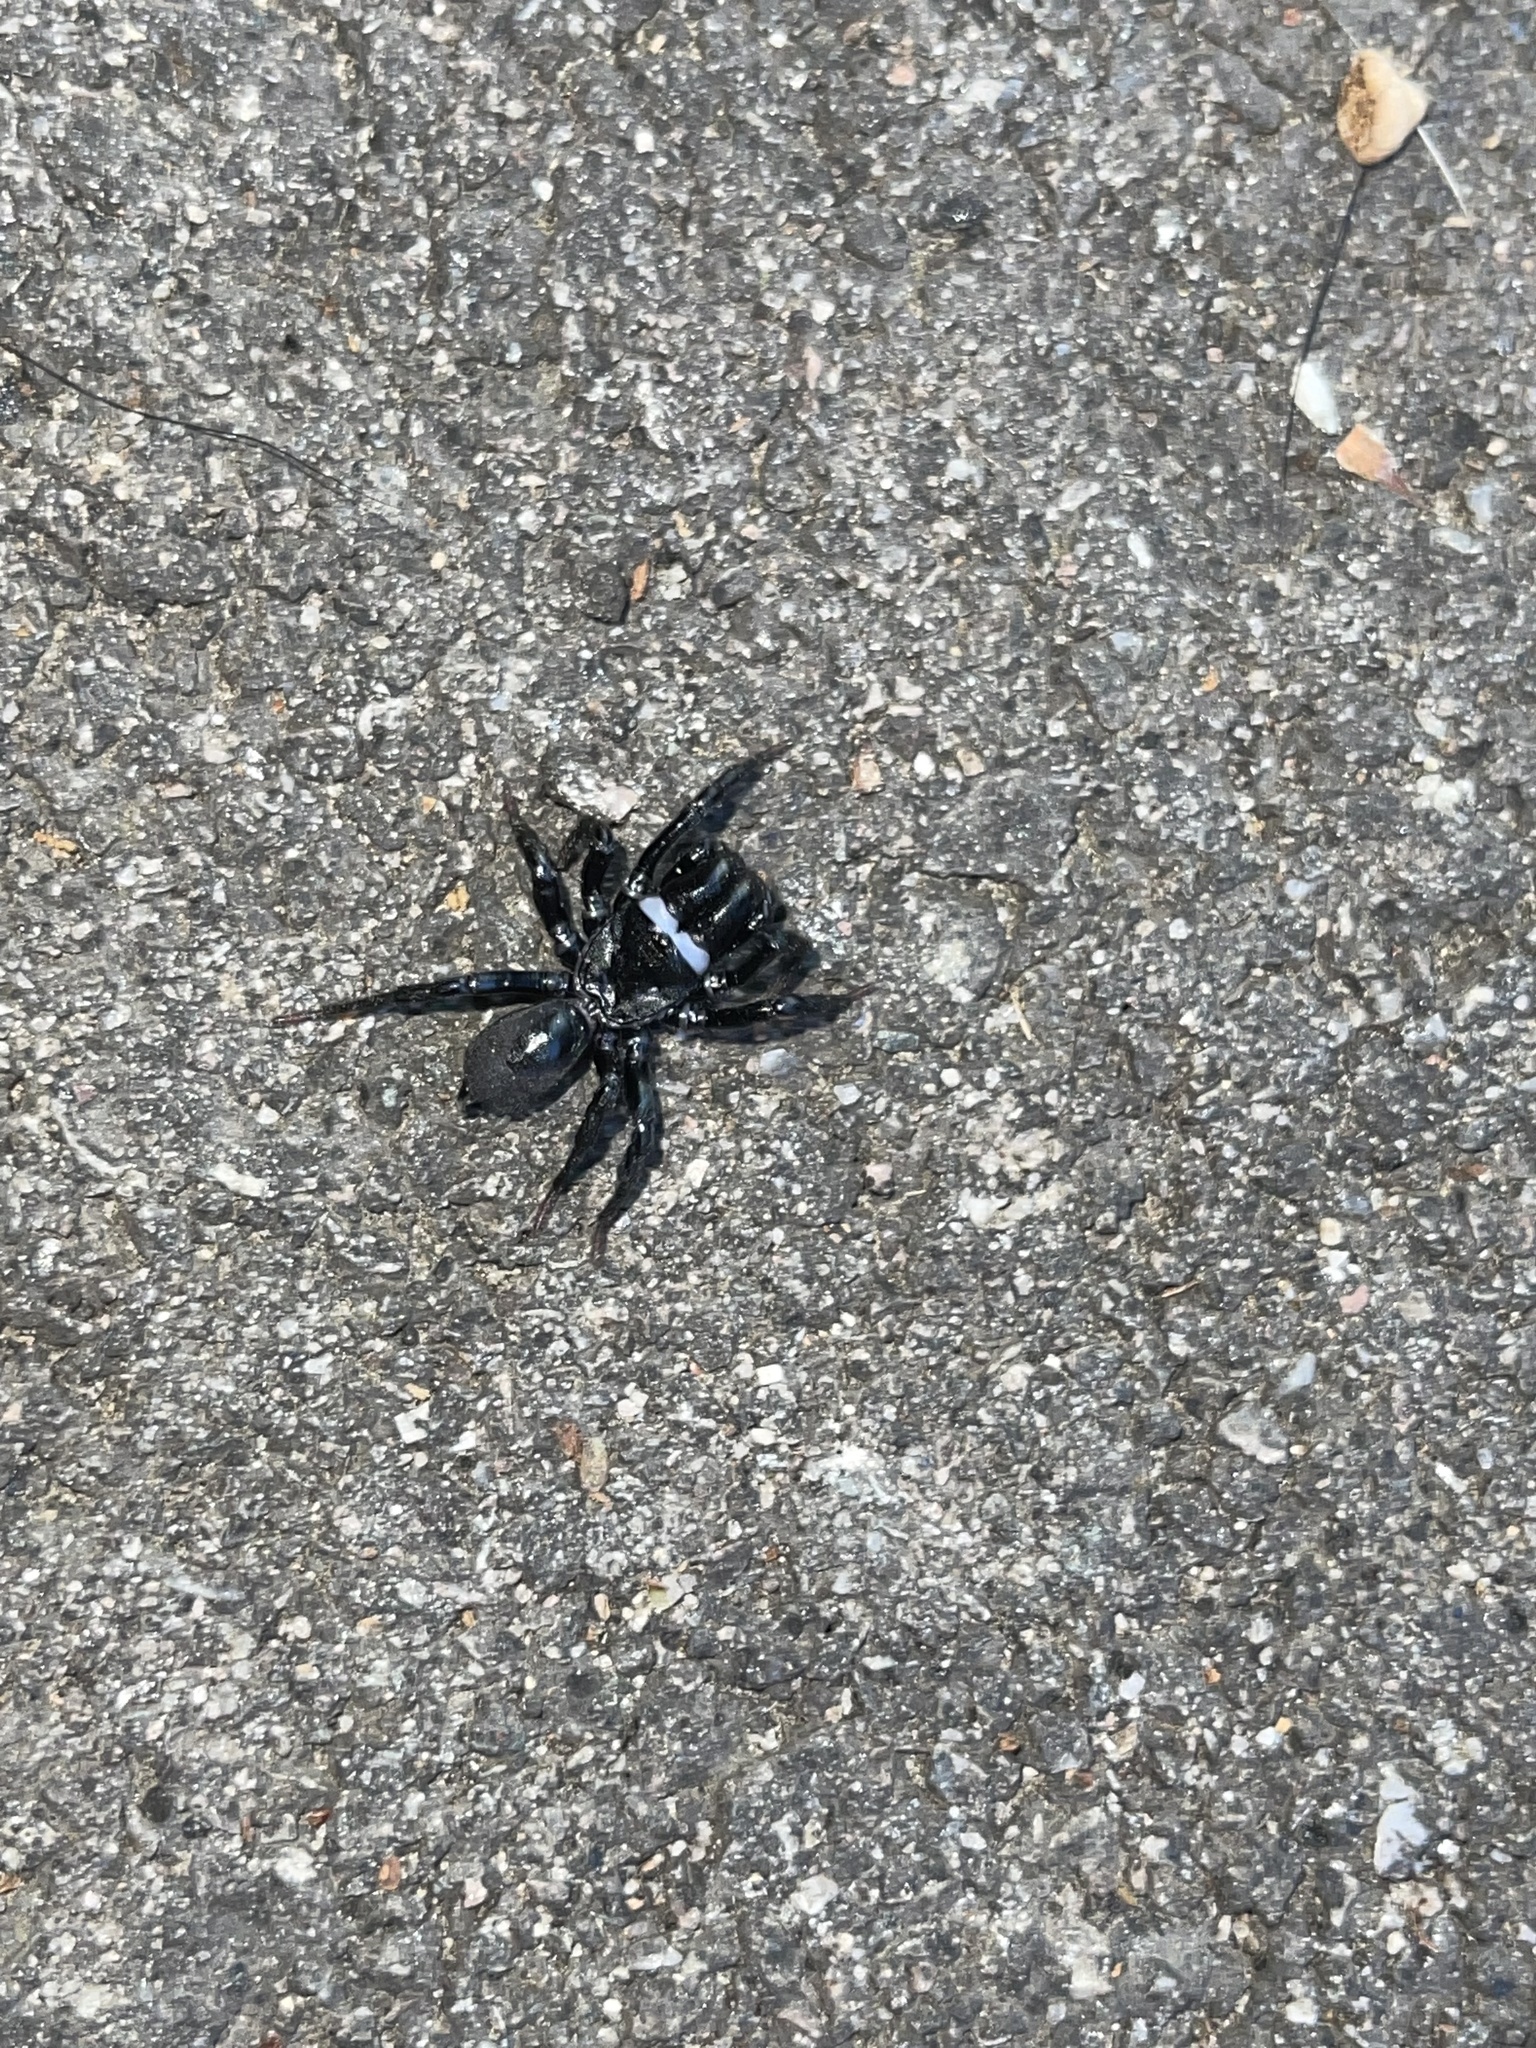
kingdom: Animalia
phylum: Arthropoda
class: Arachnida
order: Araneae
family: Atypidae
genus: Sphodros
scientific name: Sphodros niger
